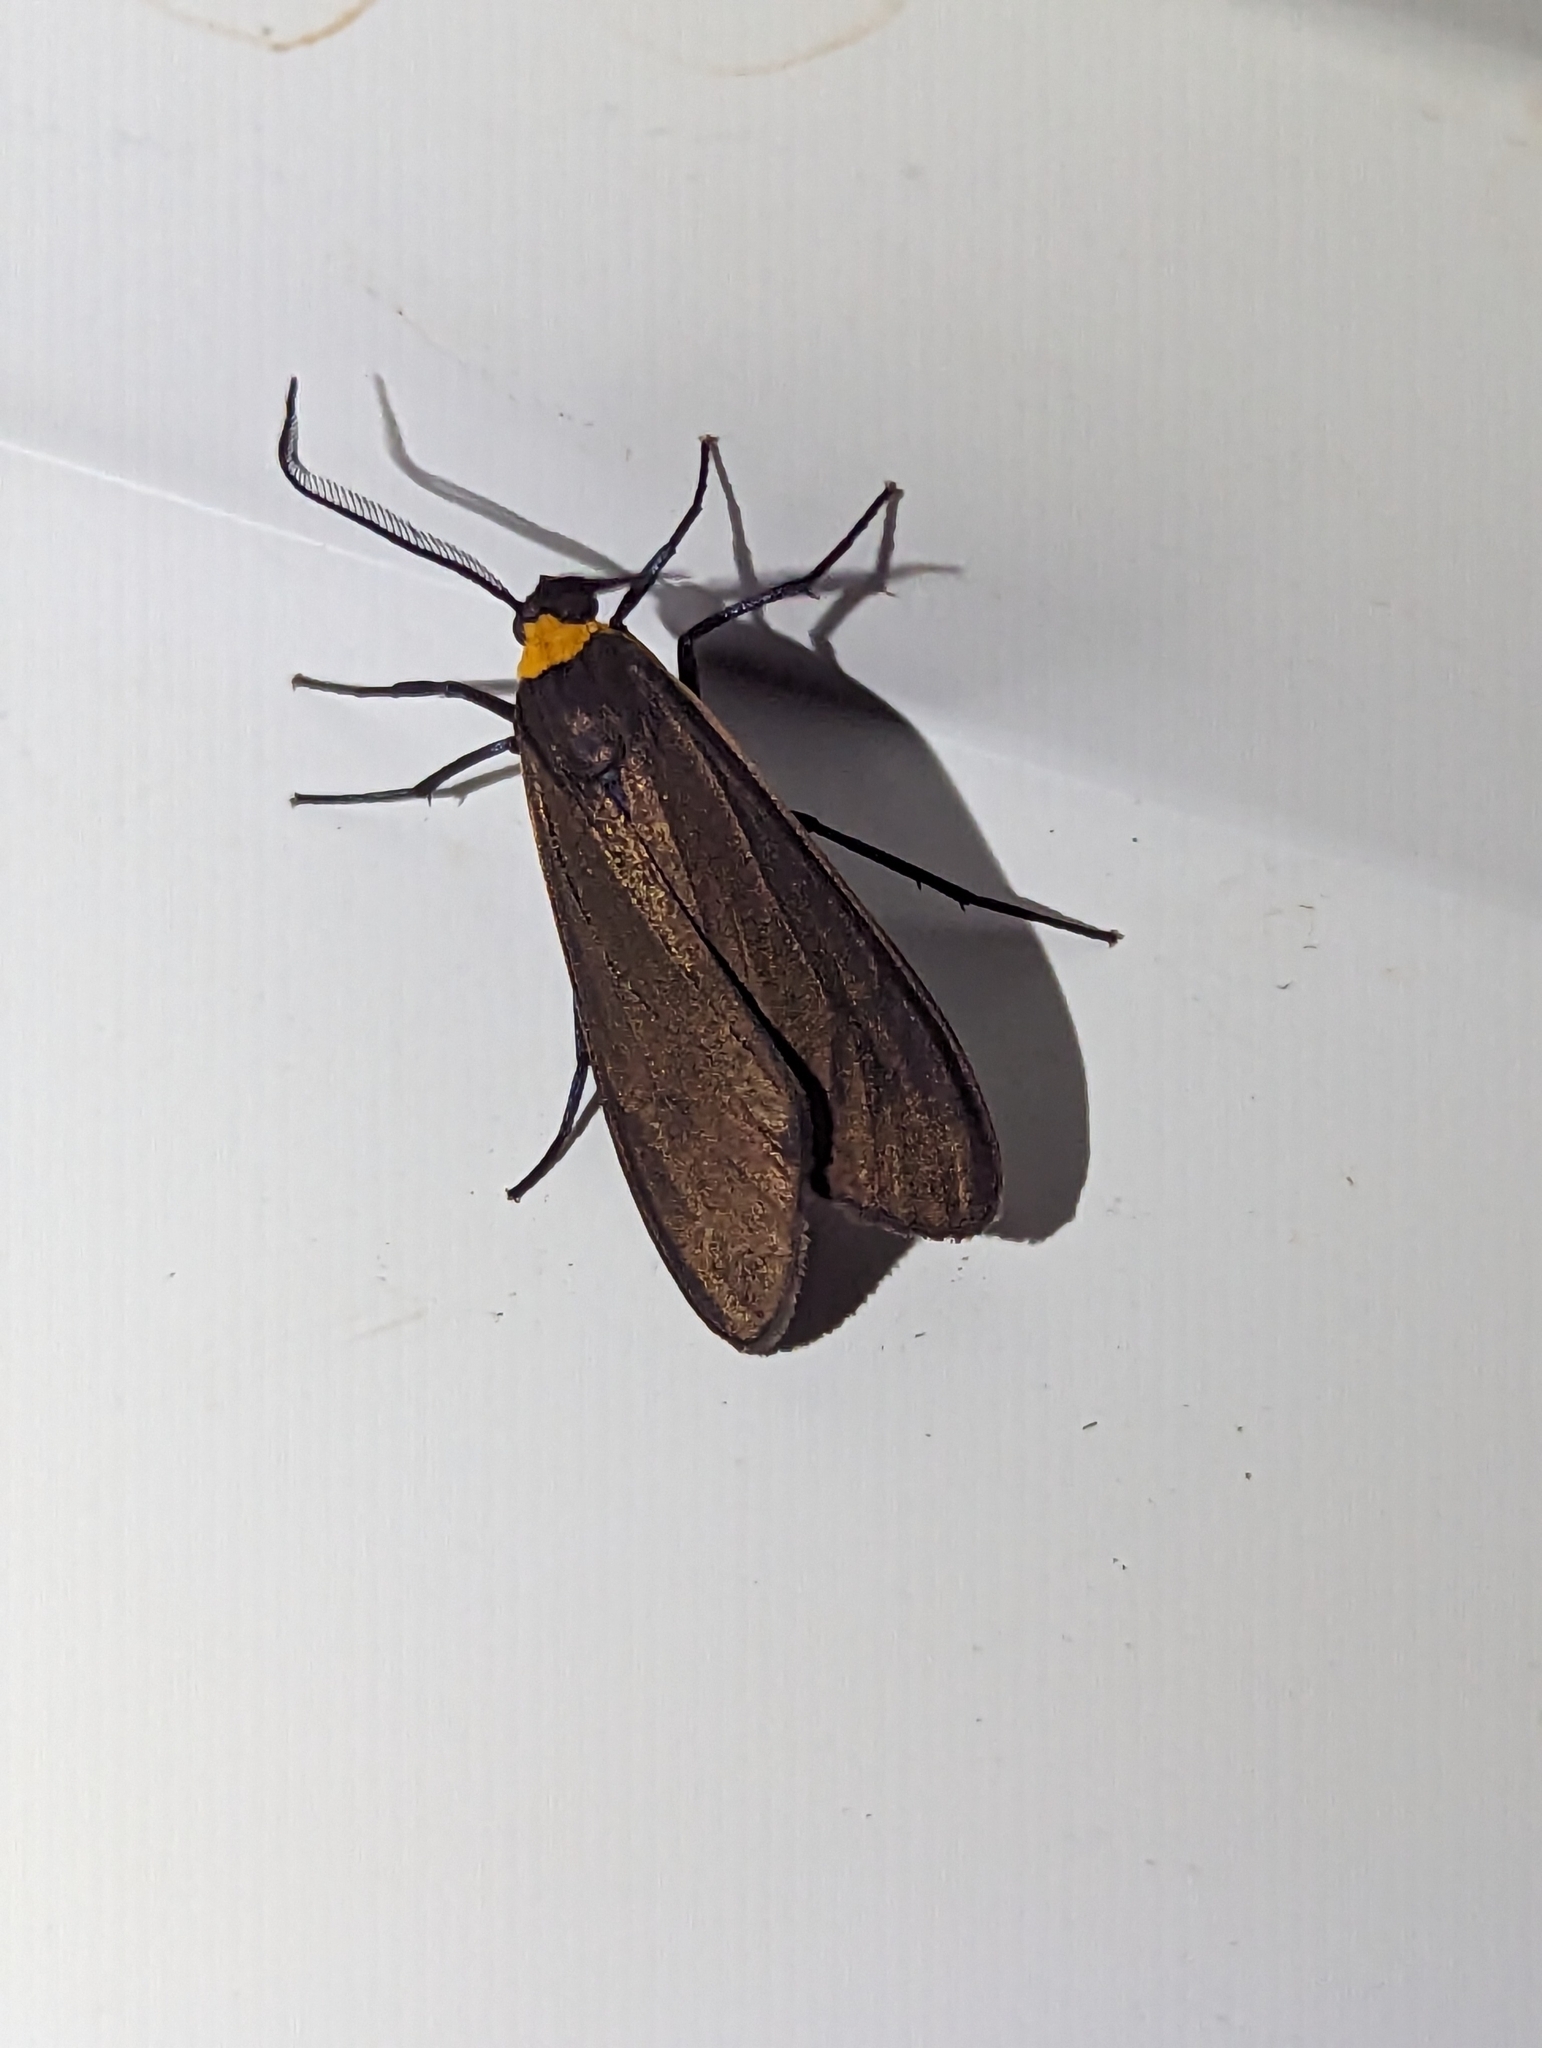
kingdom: Animalia
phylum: Arthropoda
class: Insecta
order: Lepidoptera
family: Erebidae
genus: Cisseps
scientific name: Cisseps fulvicollis
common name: Yellow-collared scape moth
